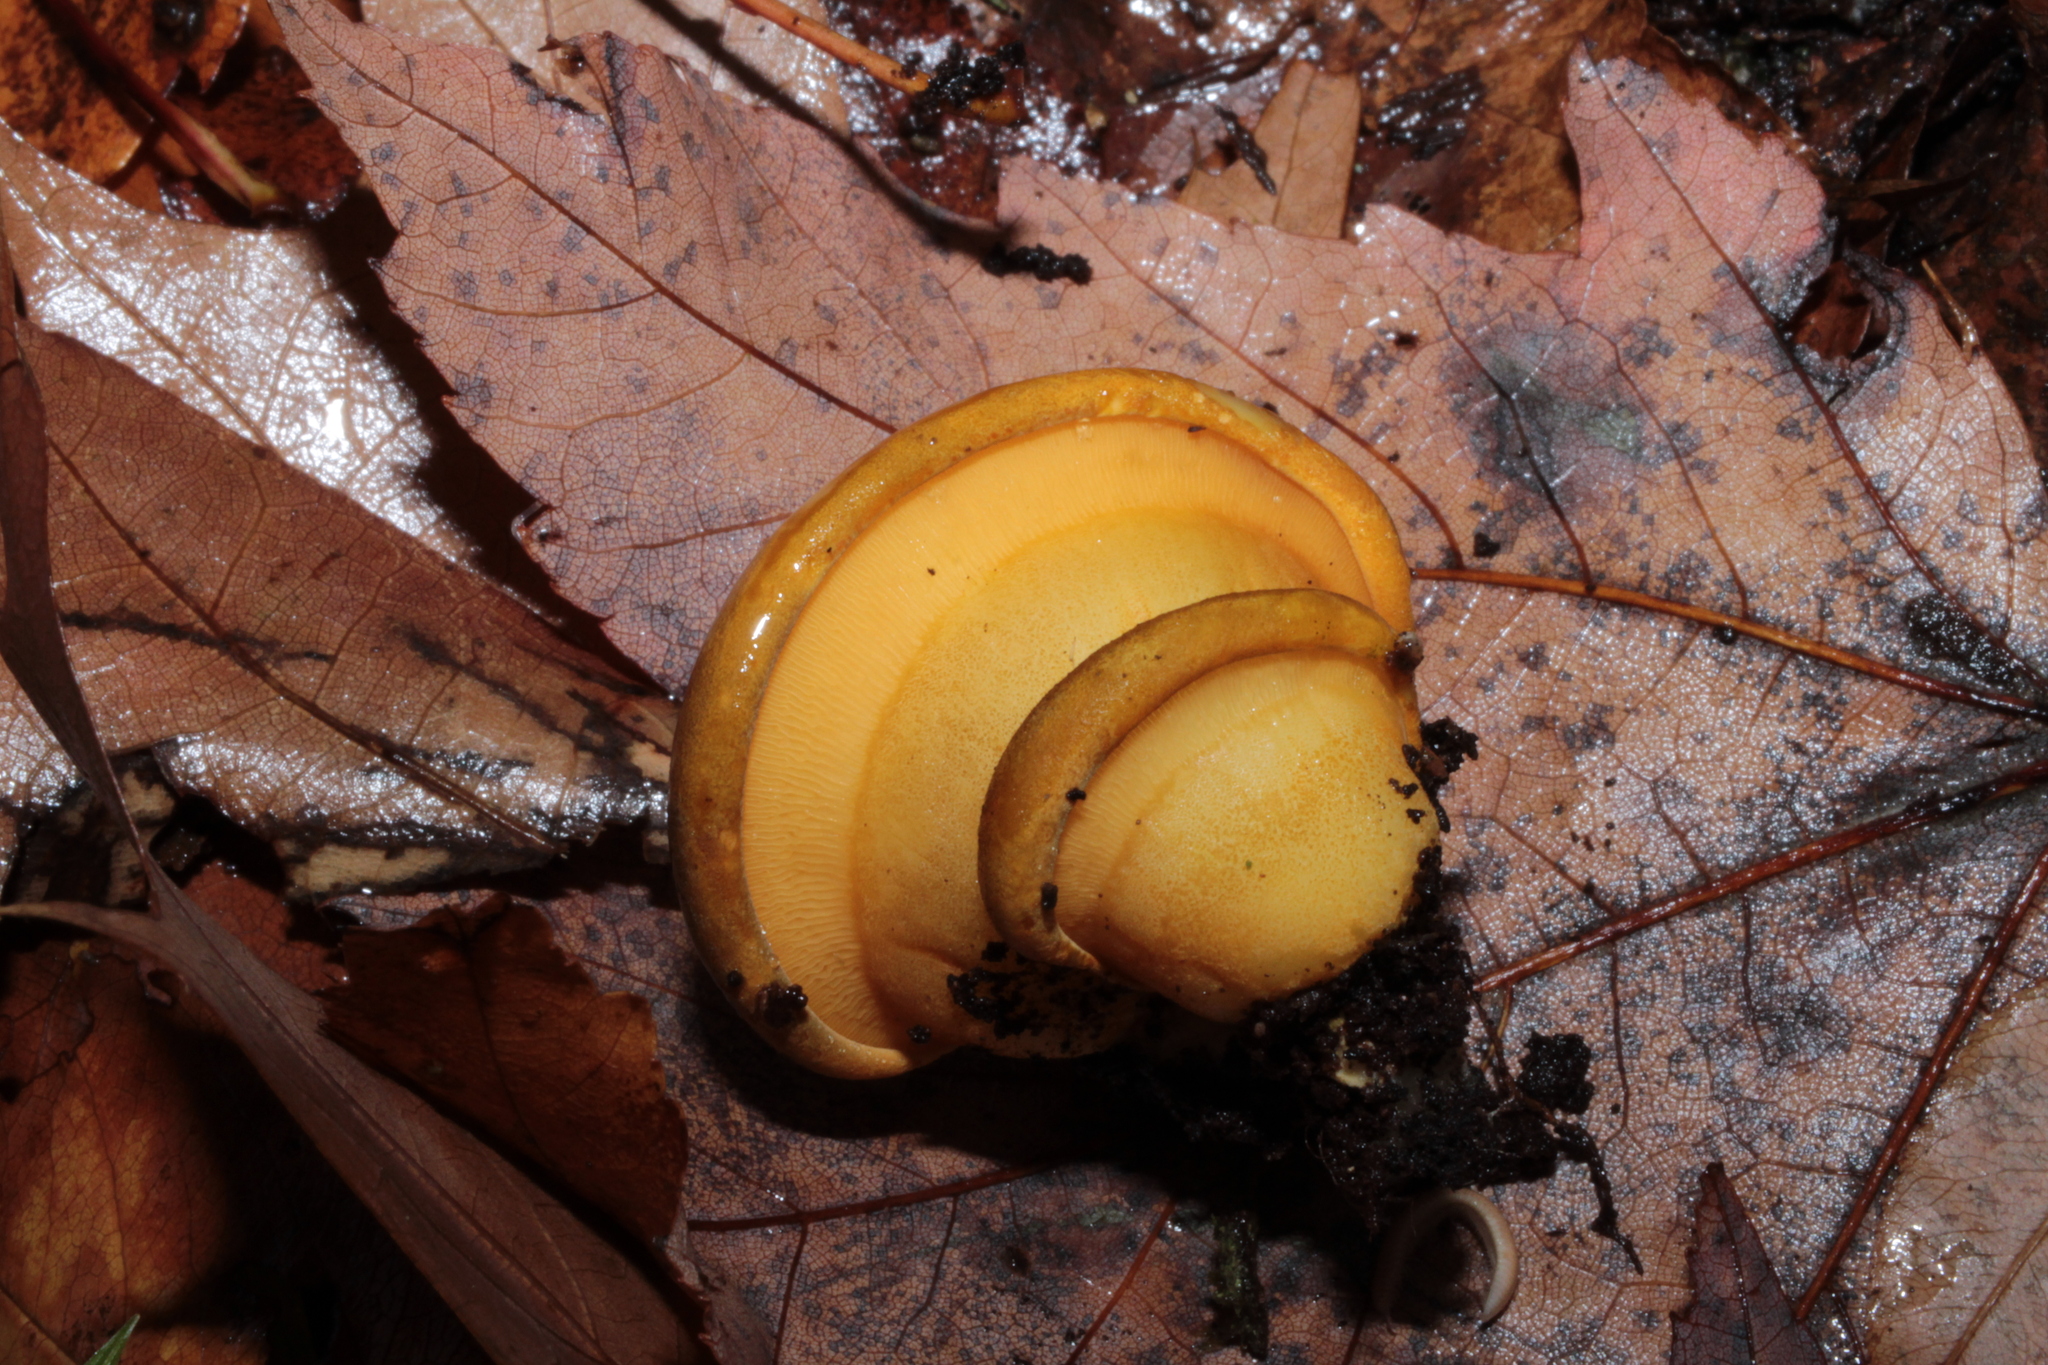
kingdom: Fungi
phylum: Basidiomycota
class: Agaricomycetes
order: Agaricales
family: Sarcomyxaceae
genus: Sarcomyxa
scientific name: Sarcomyxa serotina
